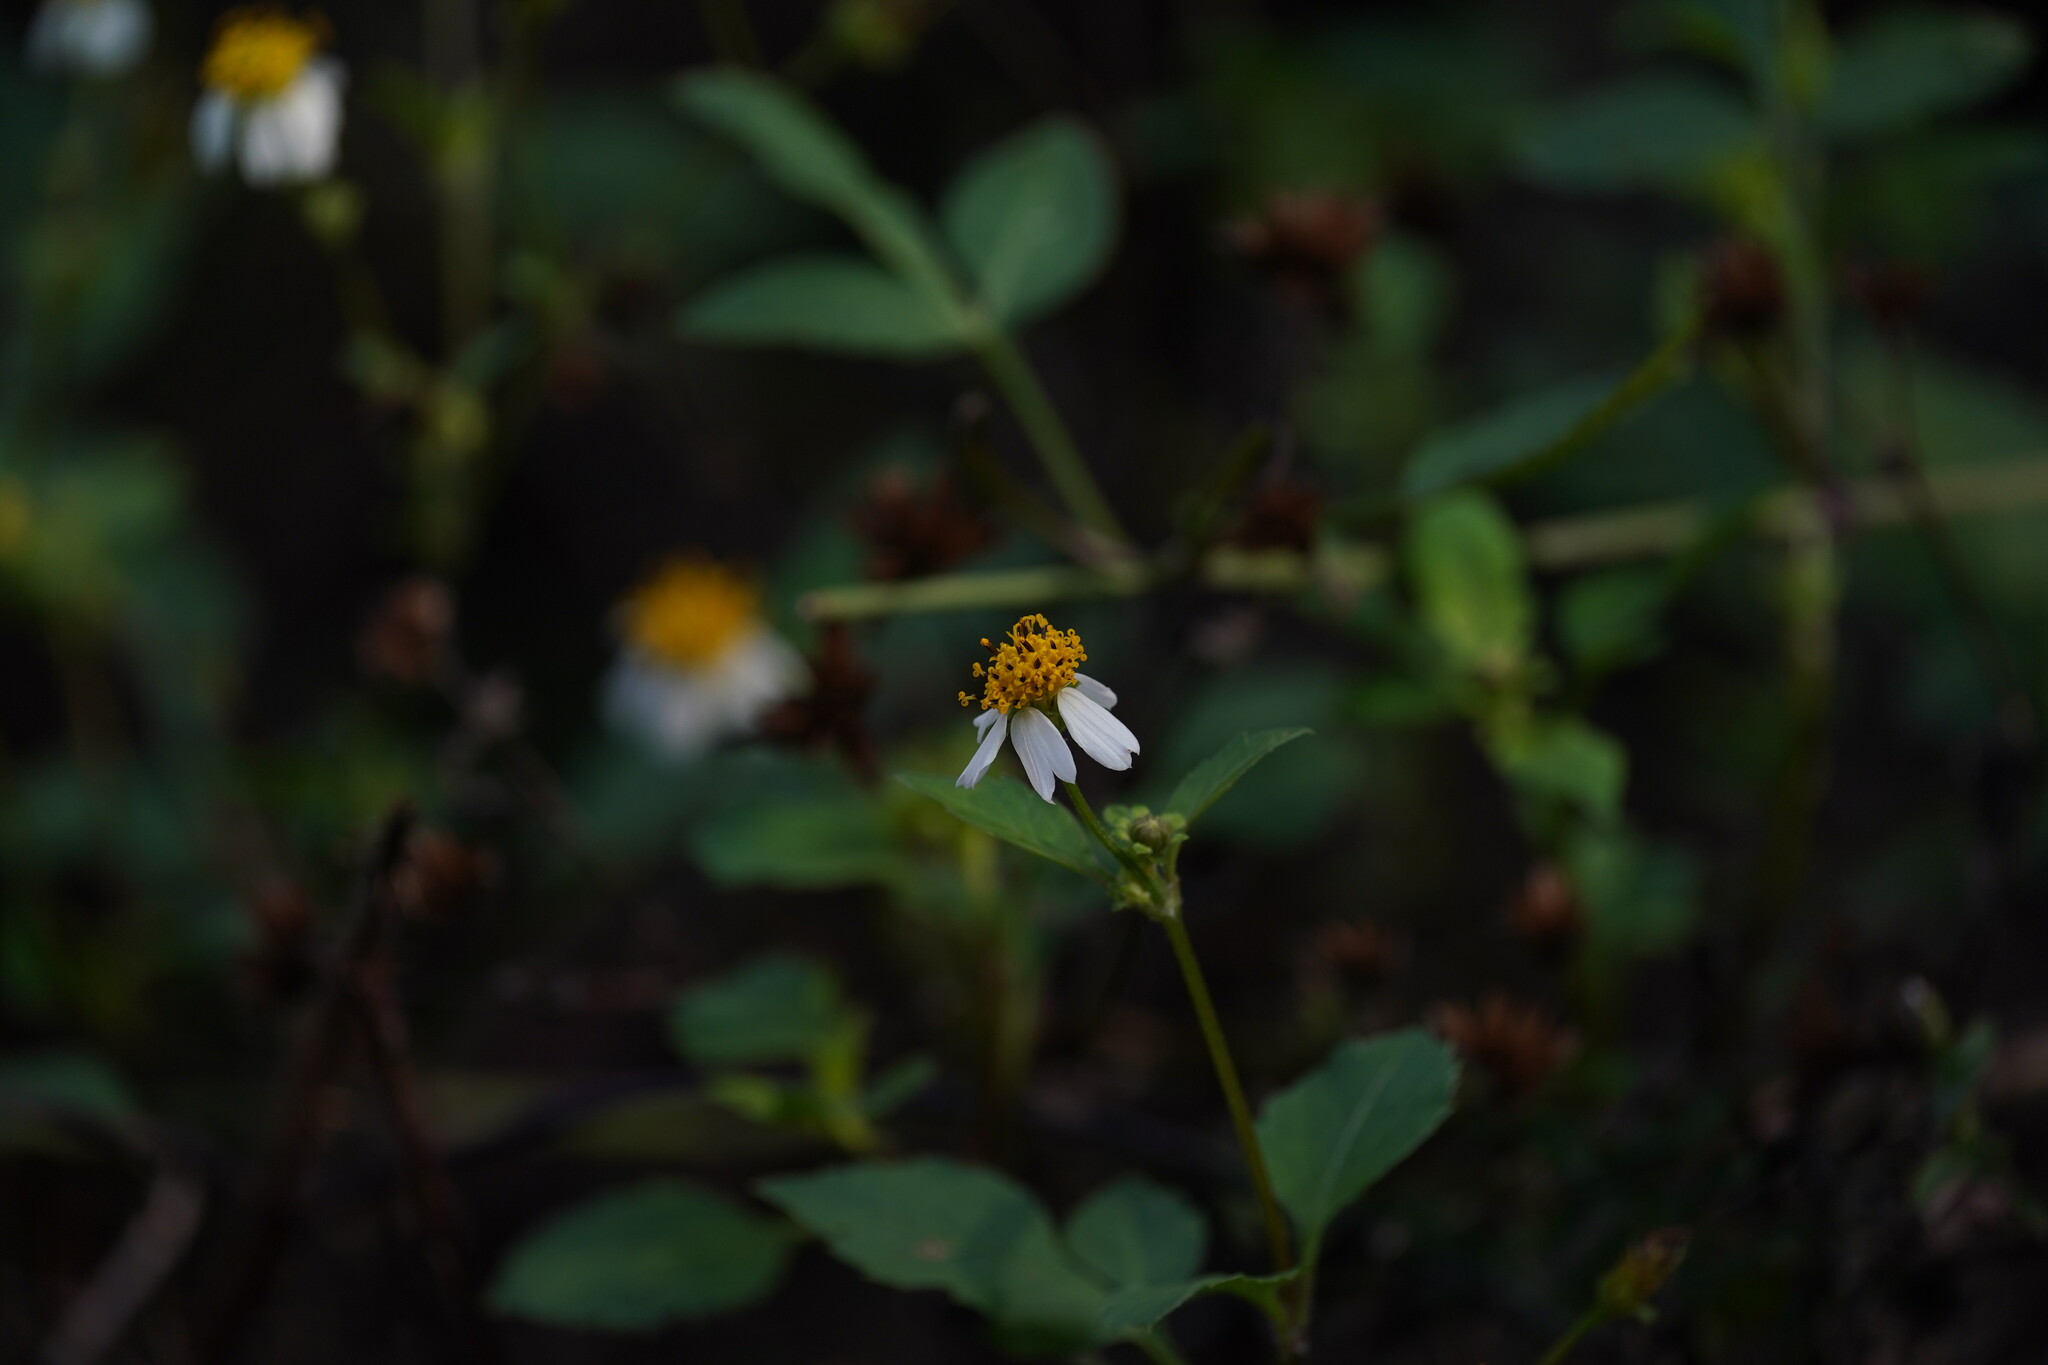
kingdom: Plantae
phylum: Tracheophyta
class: Magnoliopsida
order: Asterales
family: Asteraceae
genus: Bidens
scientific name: Bidens alba
